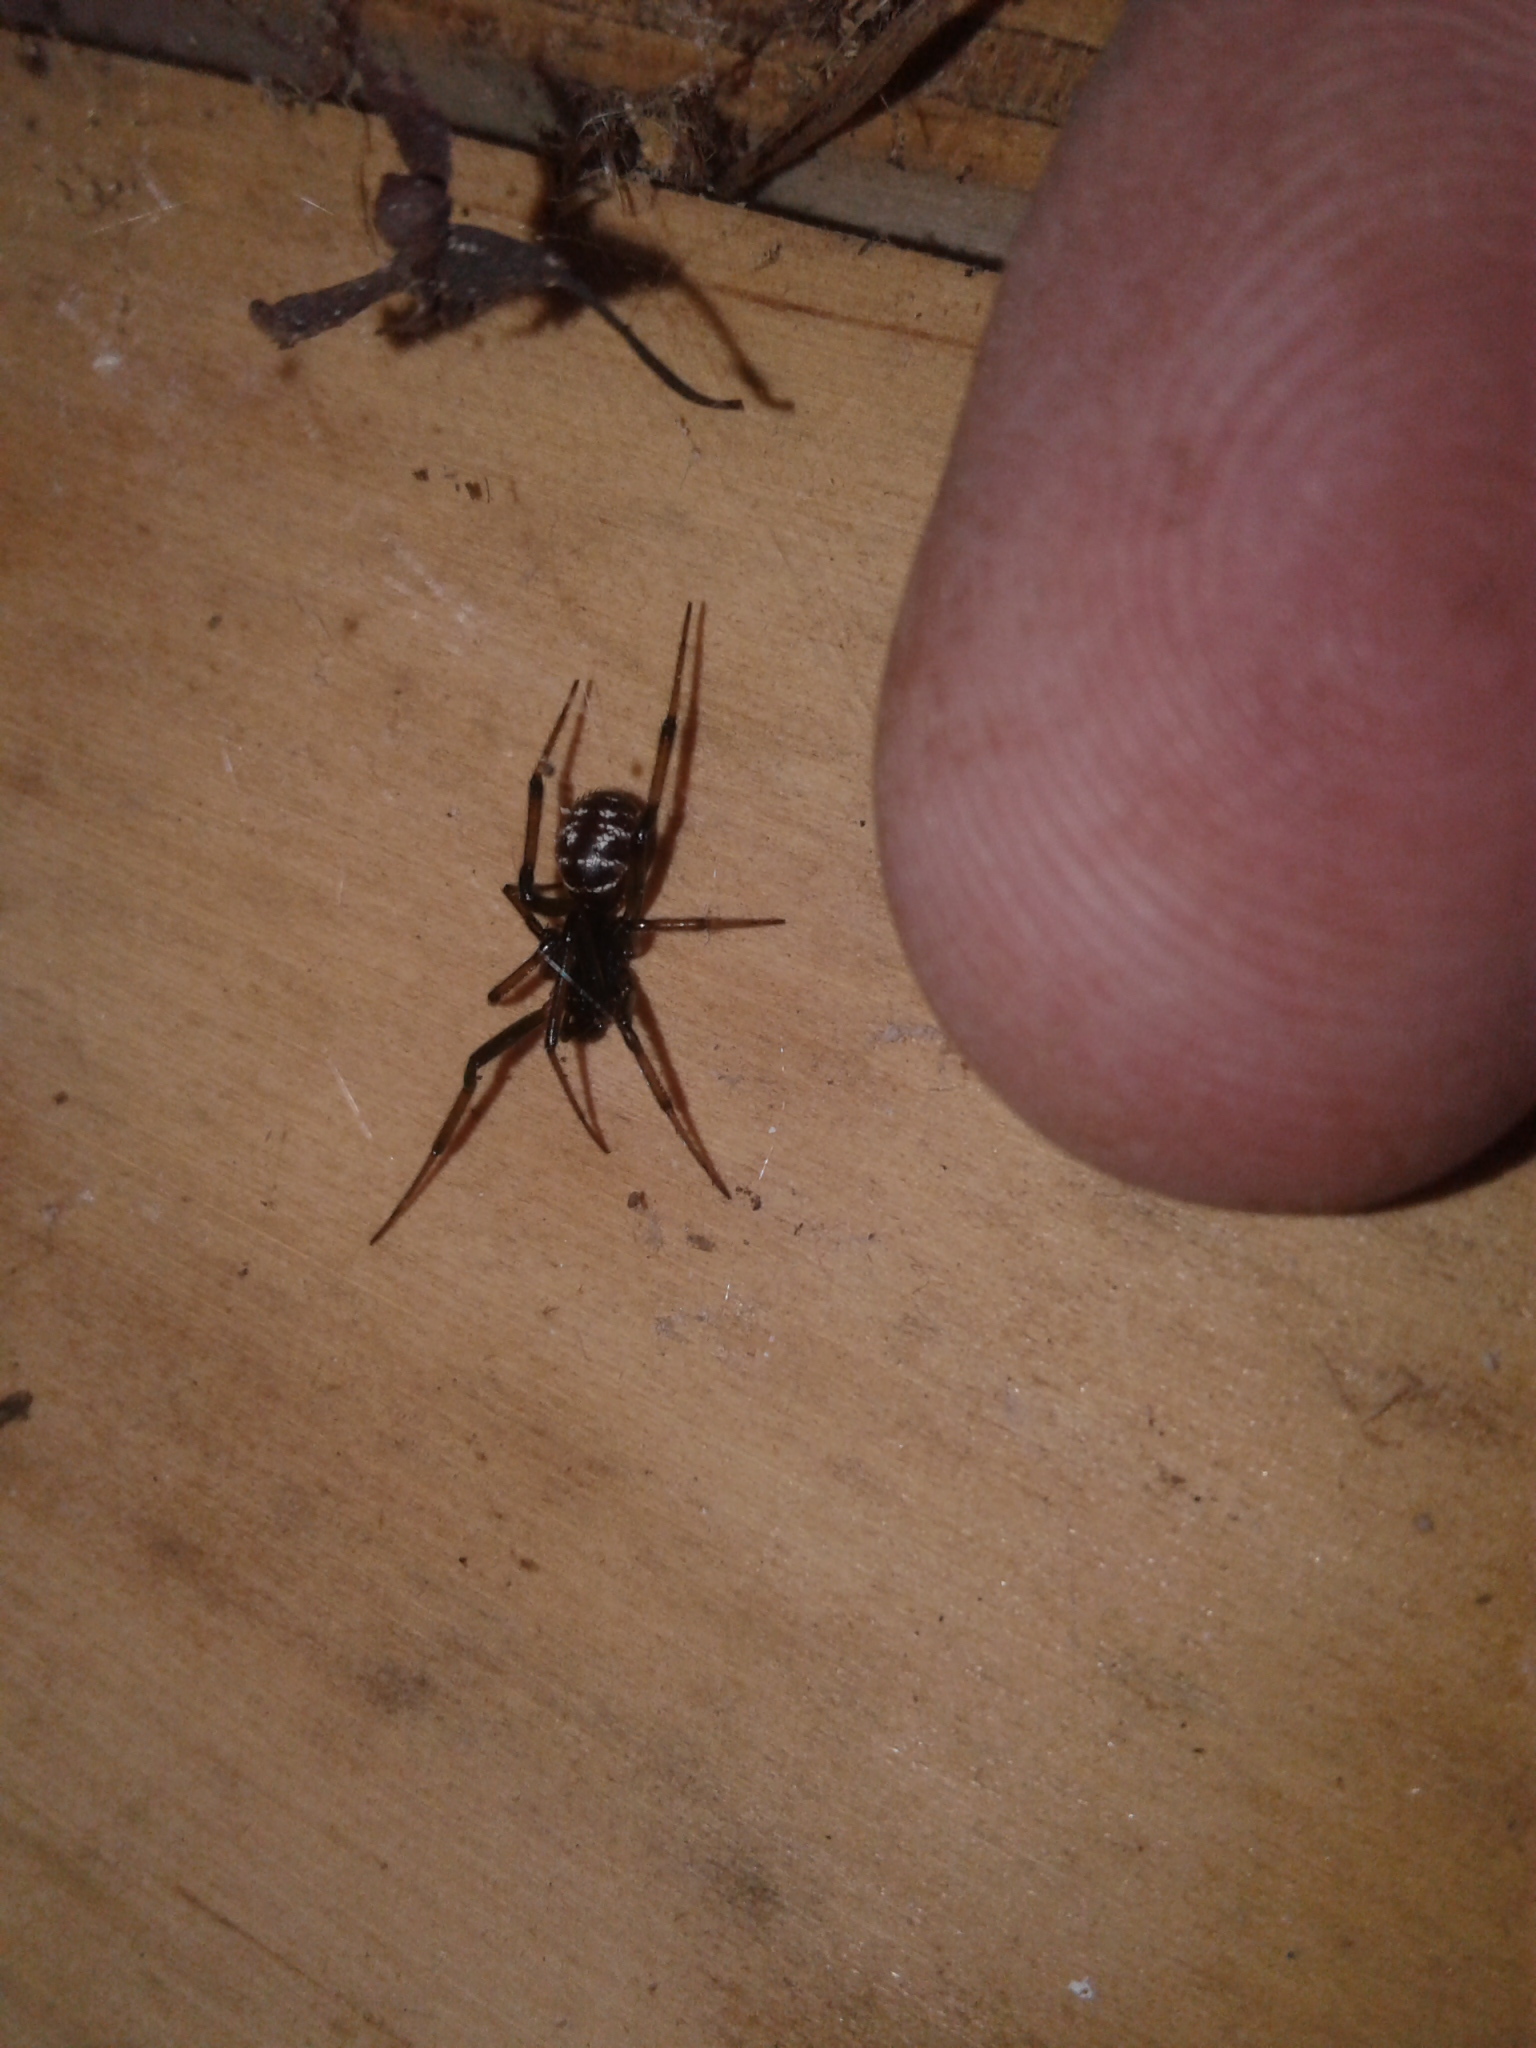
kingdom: Animalia
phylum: Arthropoda
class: Arachnida
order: Araneae
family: Theridiidae
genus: Steatoda
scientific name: Steatoda capensis
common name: Cobweb weaver
